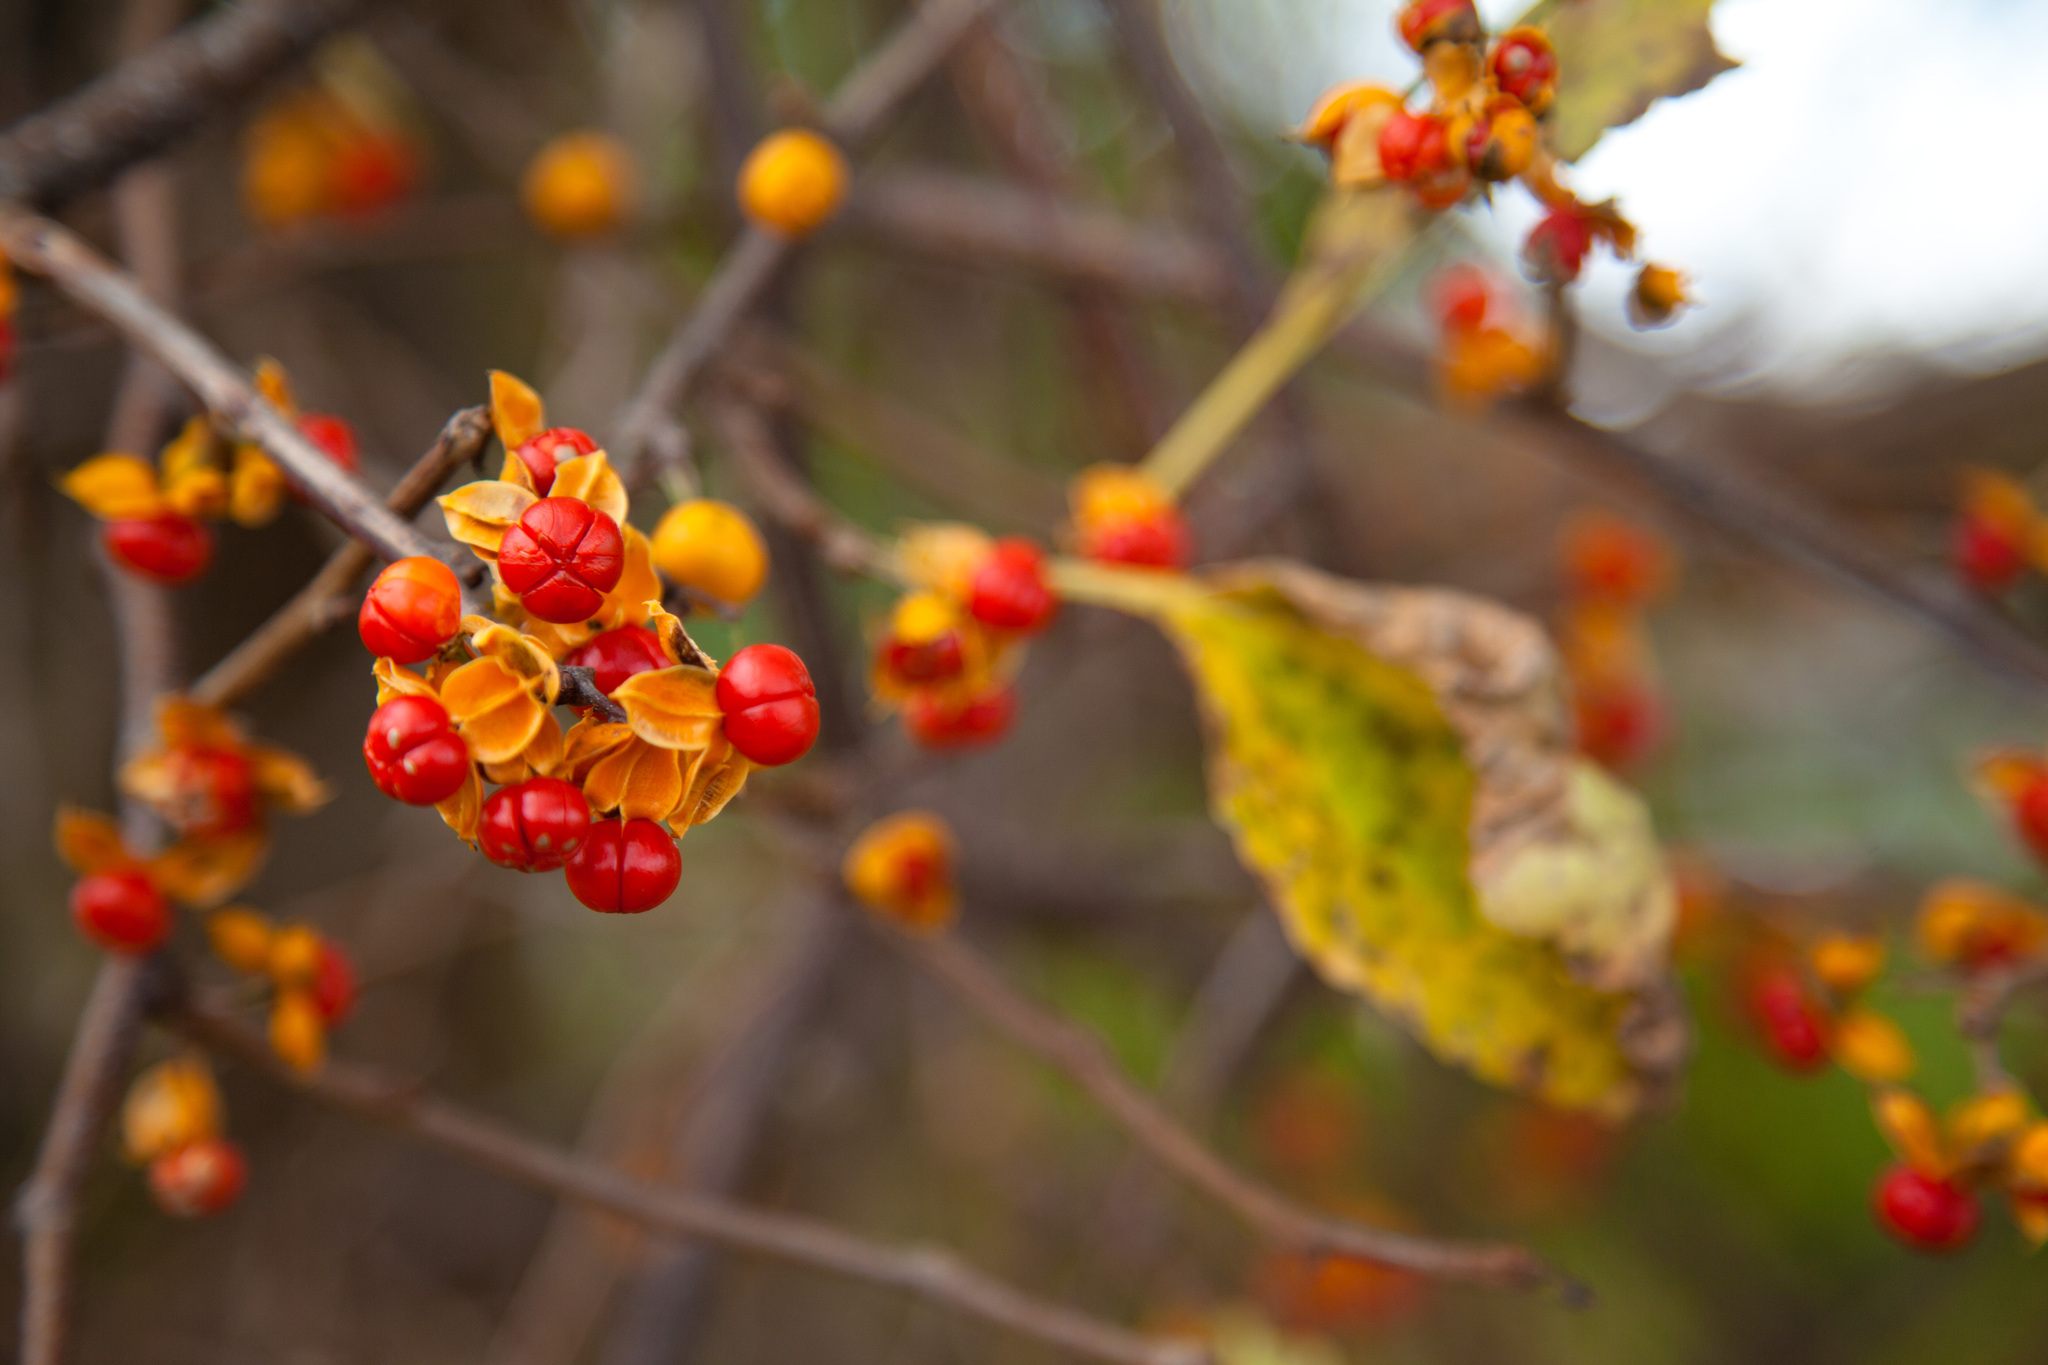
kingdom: Plantae
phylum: Tracheophyta
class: Magnoliopsida
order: Celastrales
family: Celastraceae
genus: Celastrus
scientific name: Celastrus orbiculatus
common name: Oriental bittersweet
